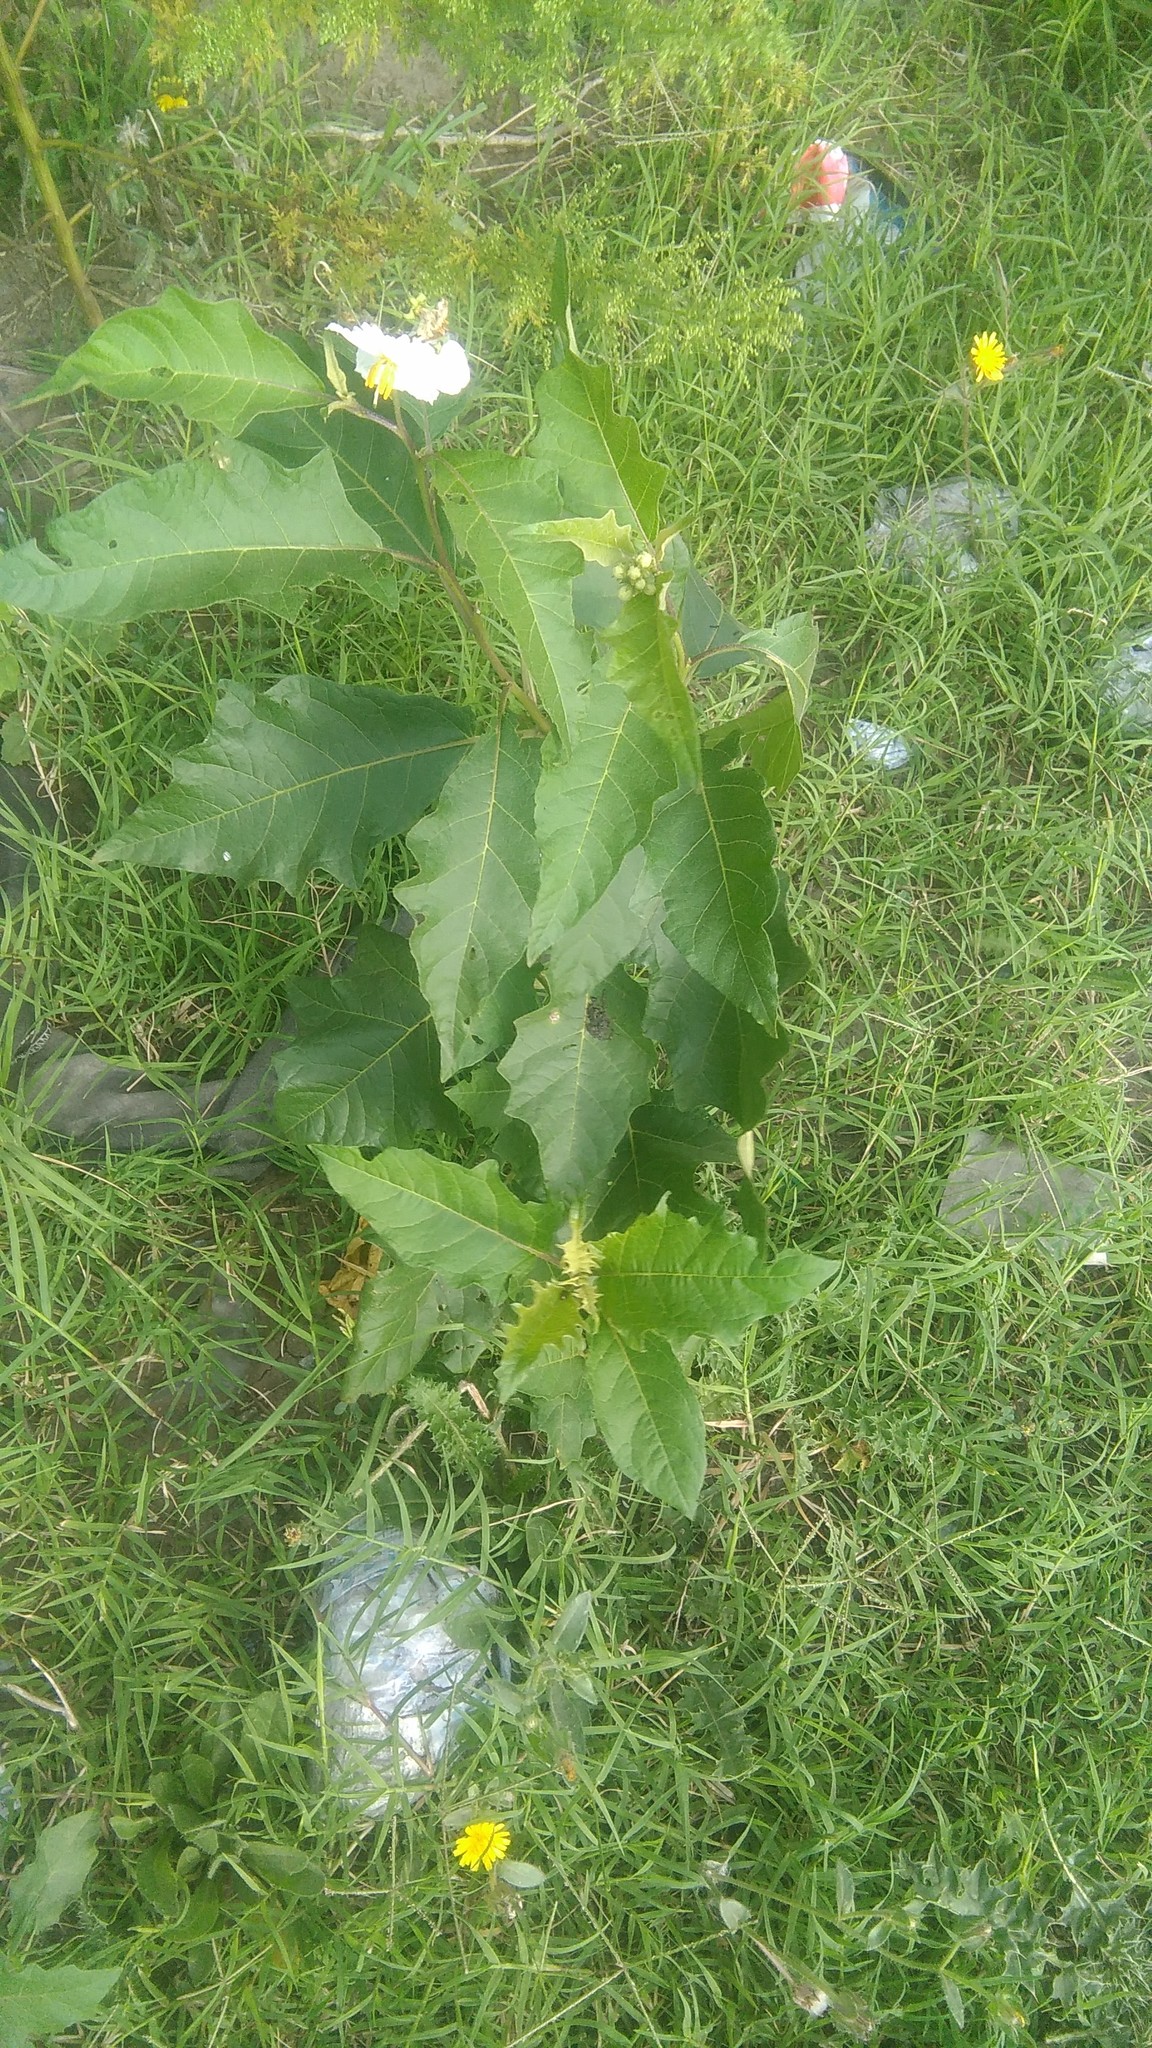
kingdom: Plantae
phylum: Tracheophyta
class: Magnoliopsida
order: Solanales
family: Solanaceae
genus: Solanum
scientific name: Solanum bonariense
